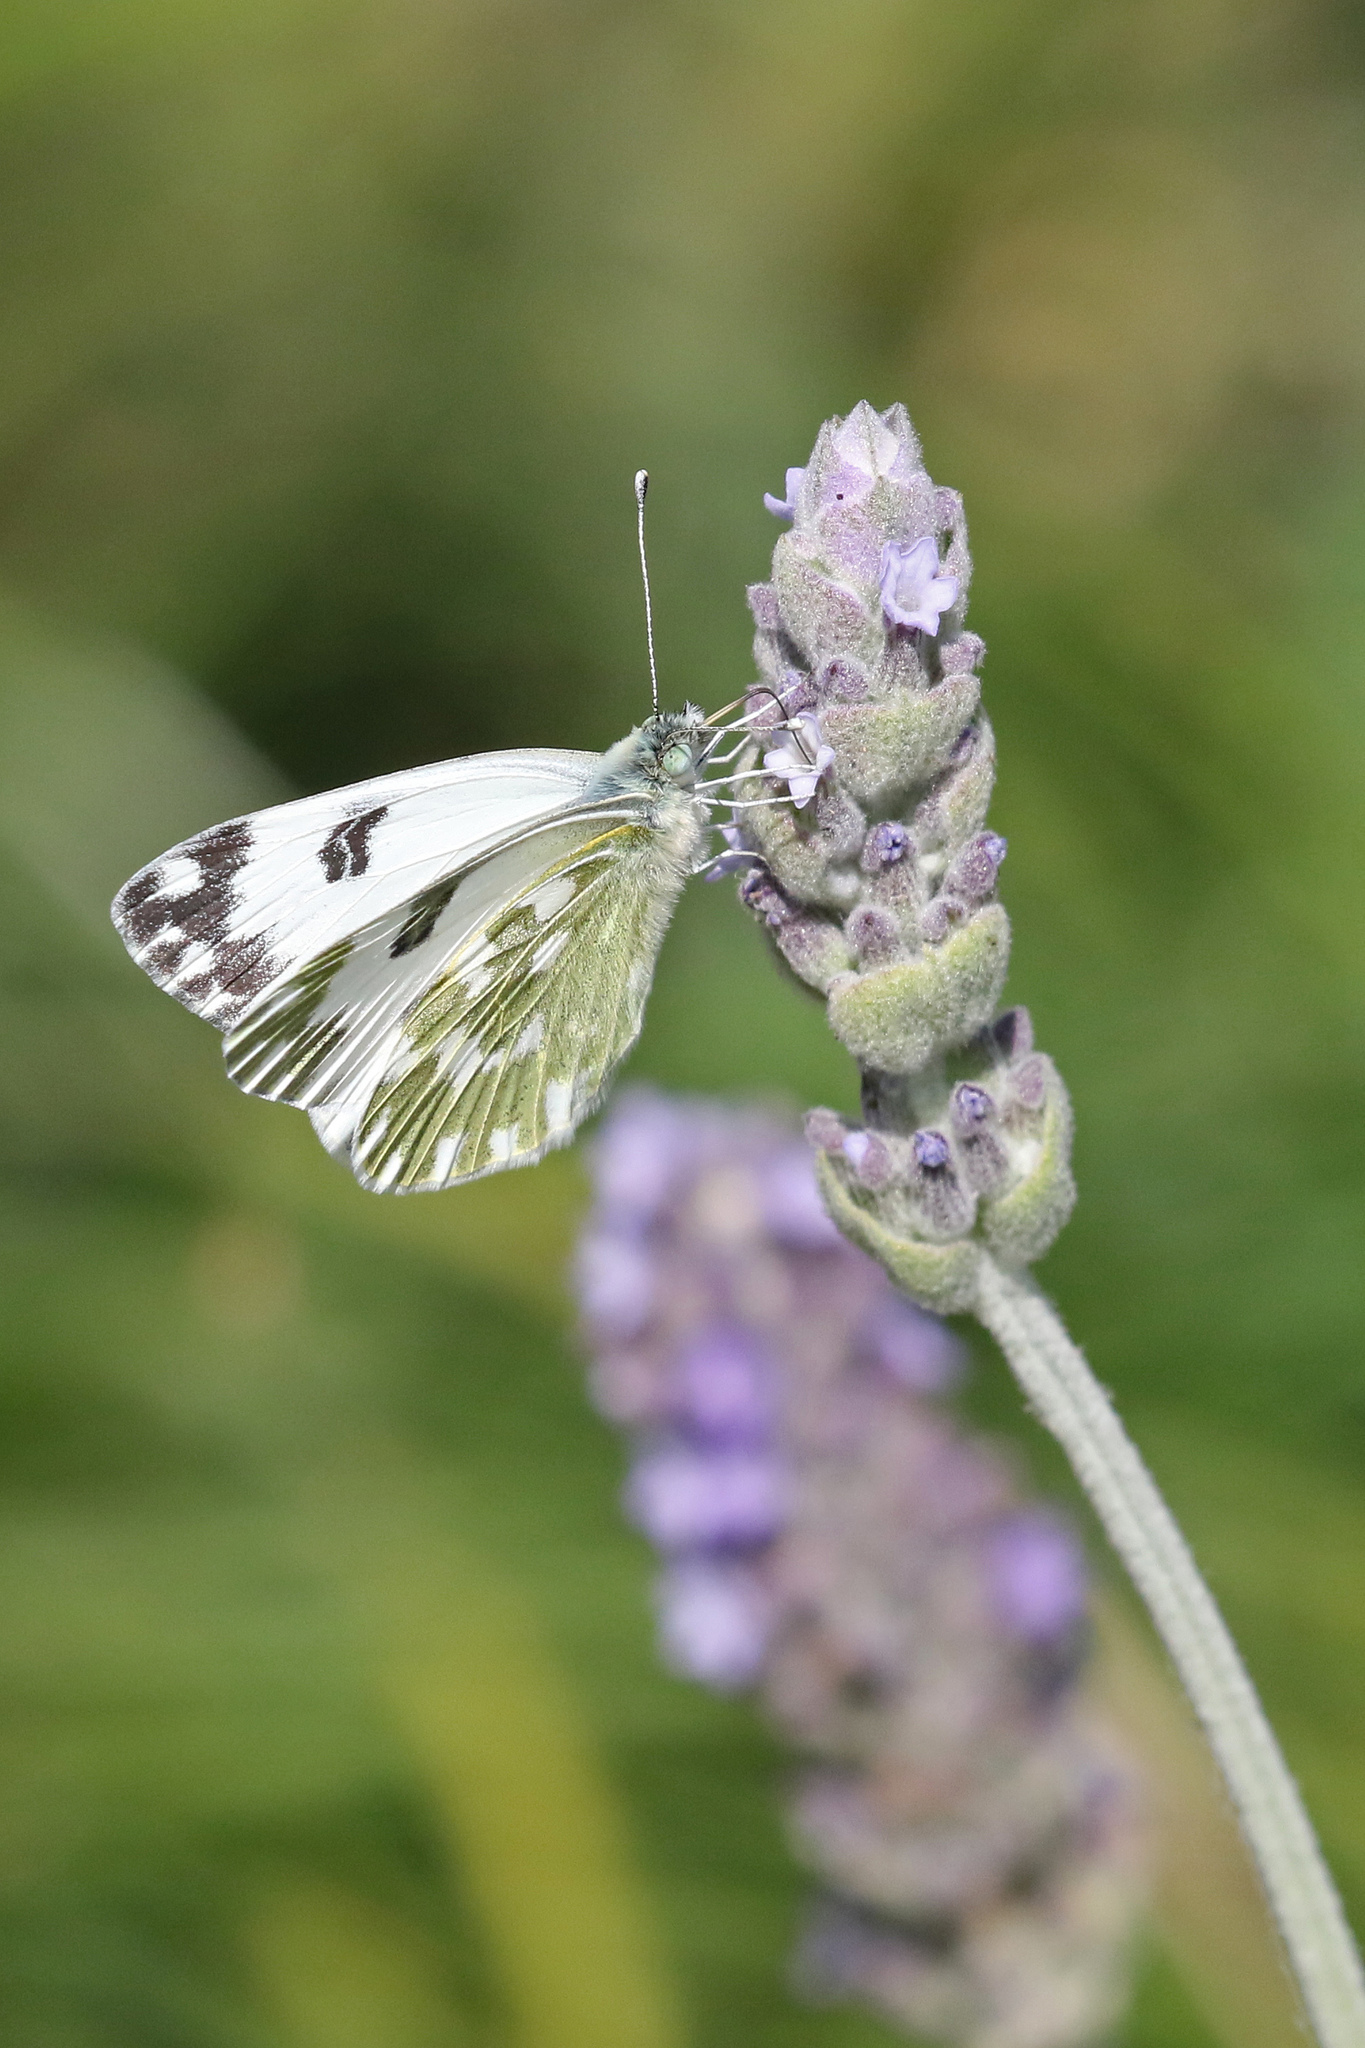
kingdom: Animalia
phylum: Arthropoda
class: Insecta
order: Lepidoptera
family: Pieridae
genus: Pontia
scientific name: Pontia edusa
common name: Eastern bath white
